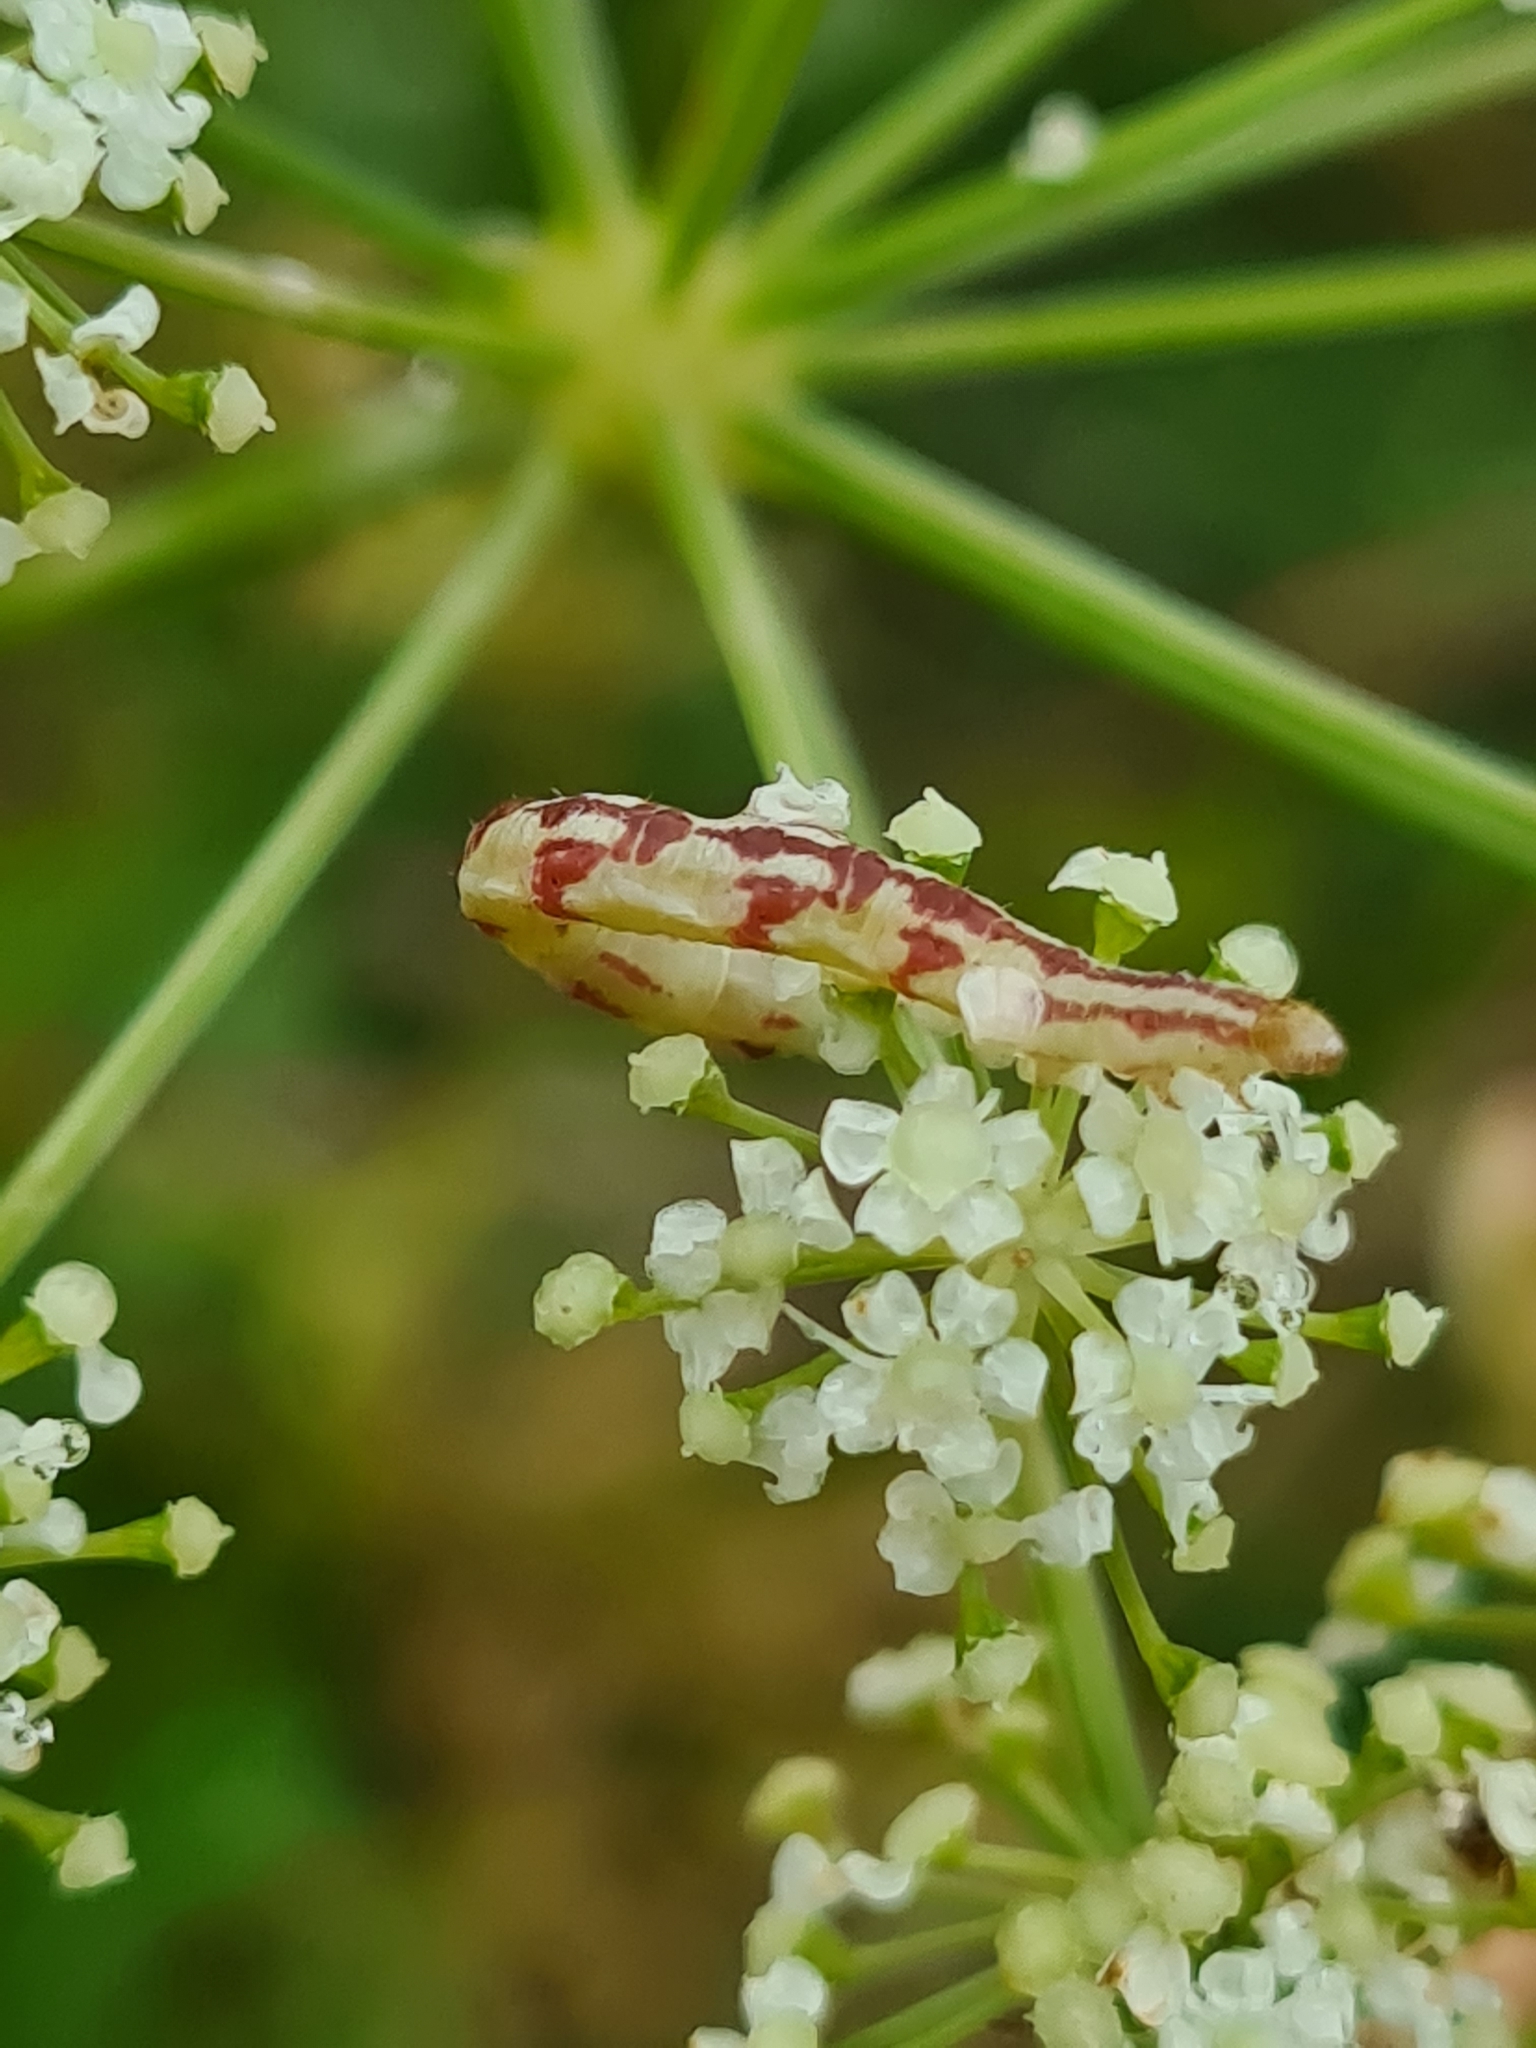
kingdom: Animalia
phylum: Arthropoda
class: Insecta
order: Lepidoptera
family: Geometridae
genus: Eupithecia
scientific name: Eupithecia centaureata
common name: Lime-speck pug
